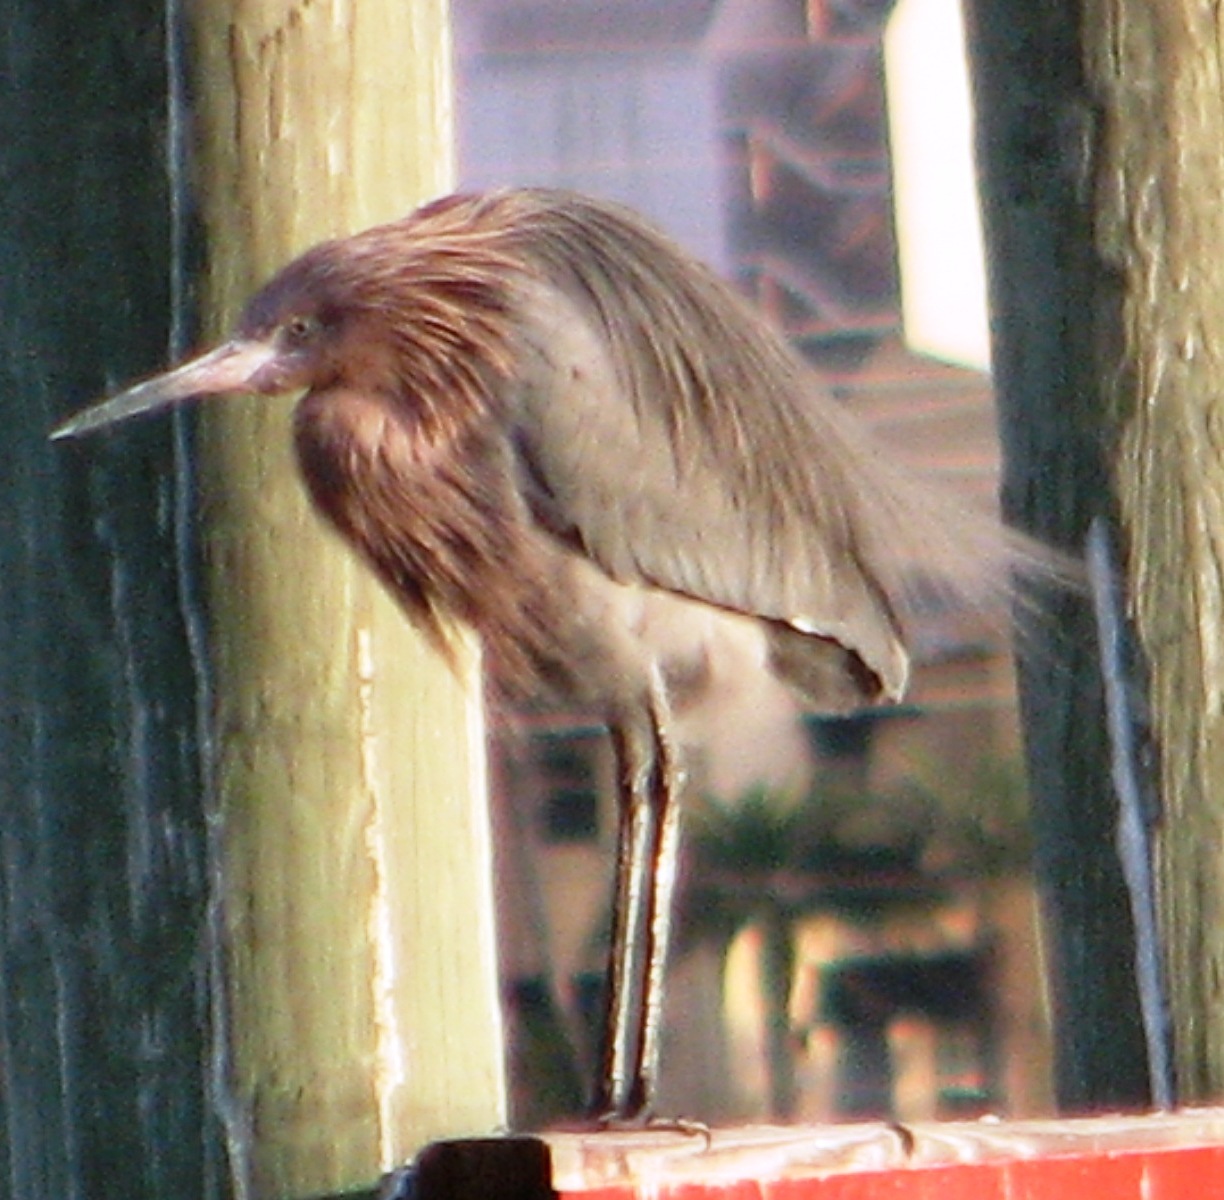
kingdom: Animalia
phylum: Chordata
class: Aves
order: Pelecaniformes
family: Ardeidae
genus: Egretta
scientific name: Egretta rufescens
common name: Reddish egret
